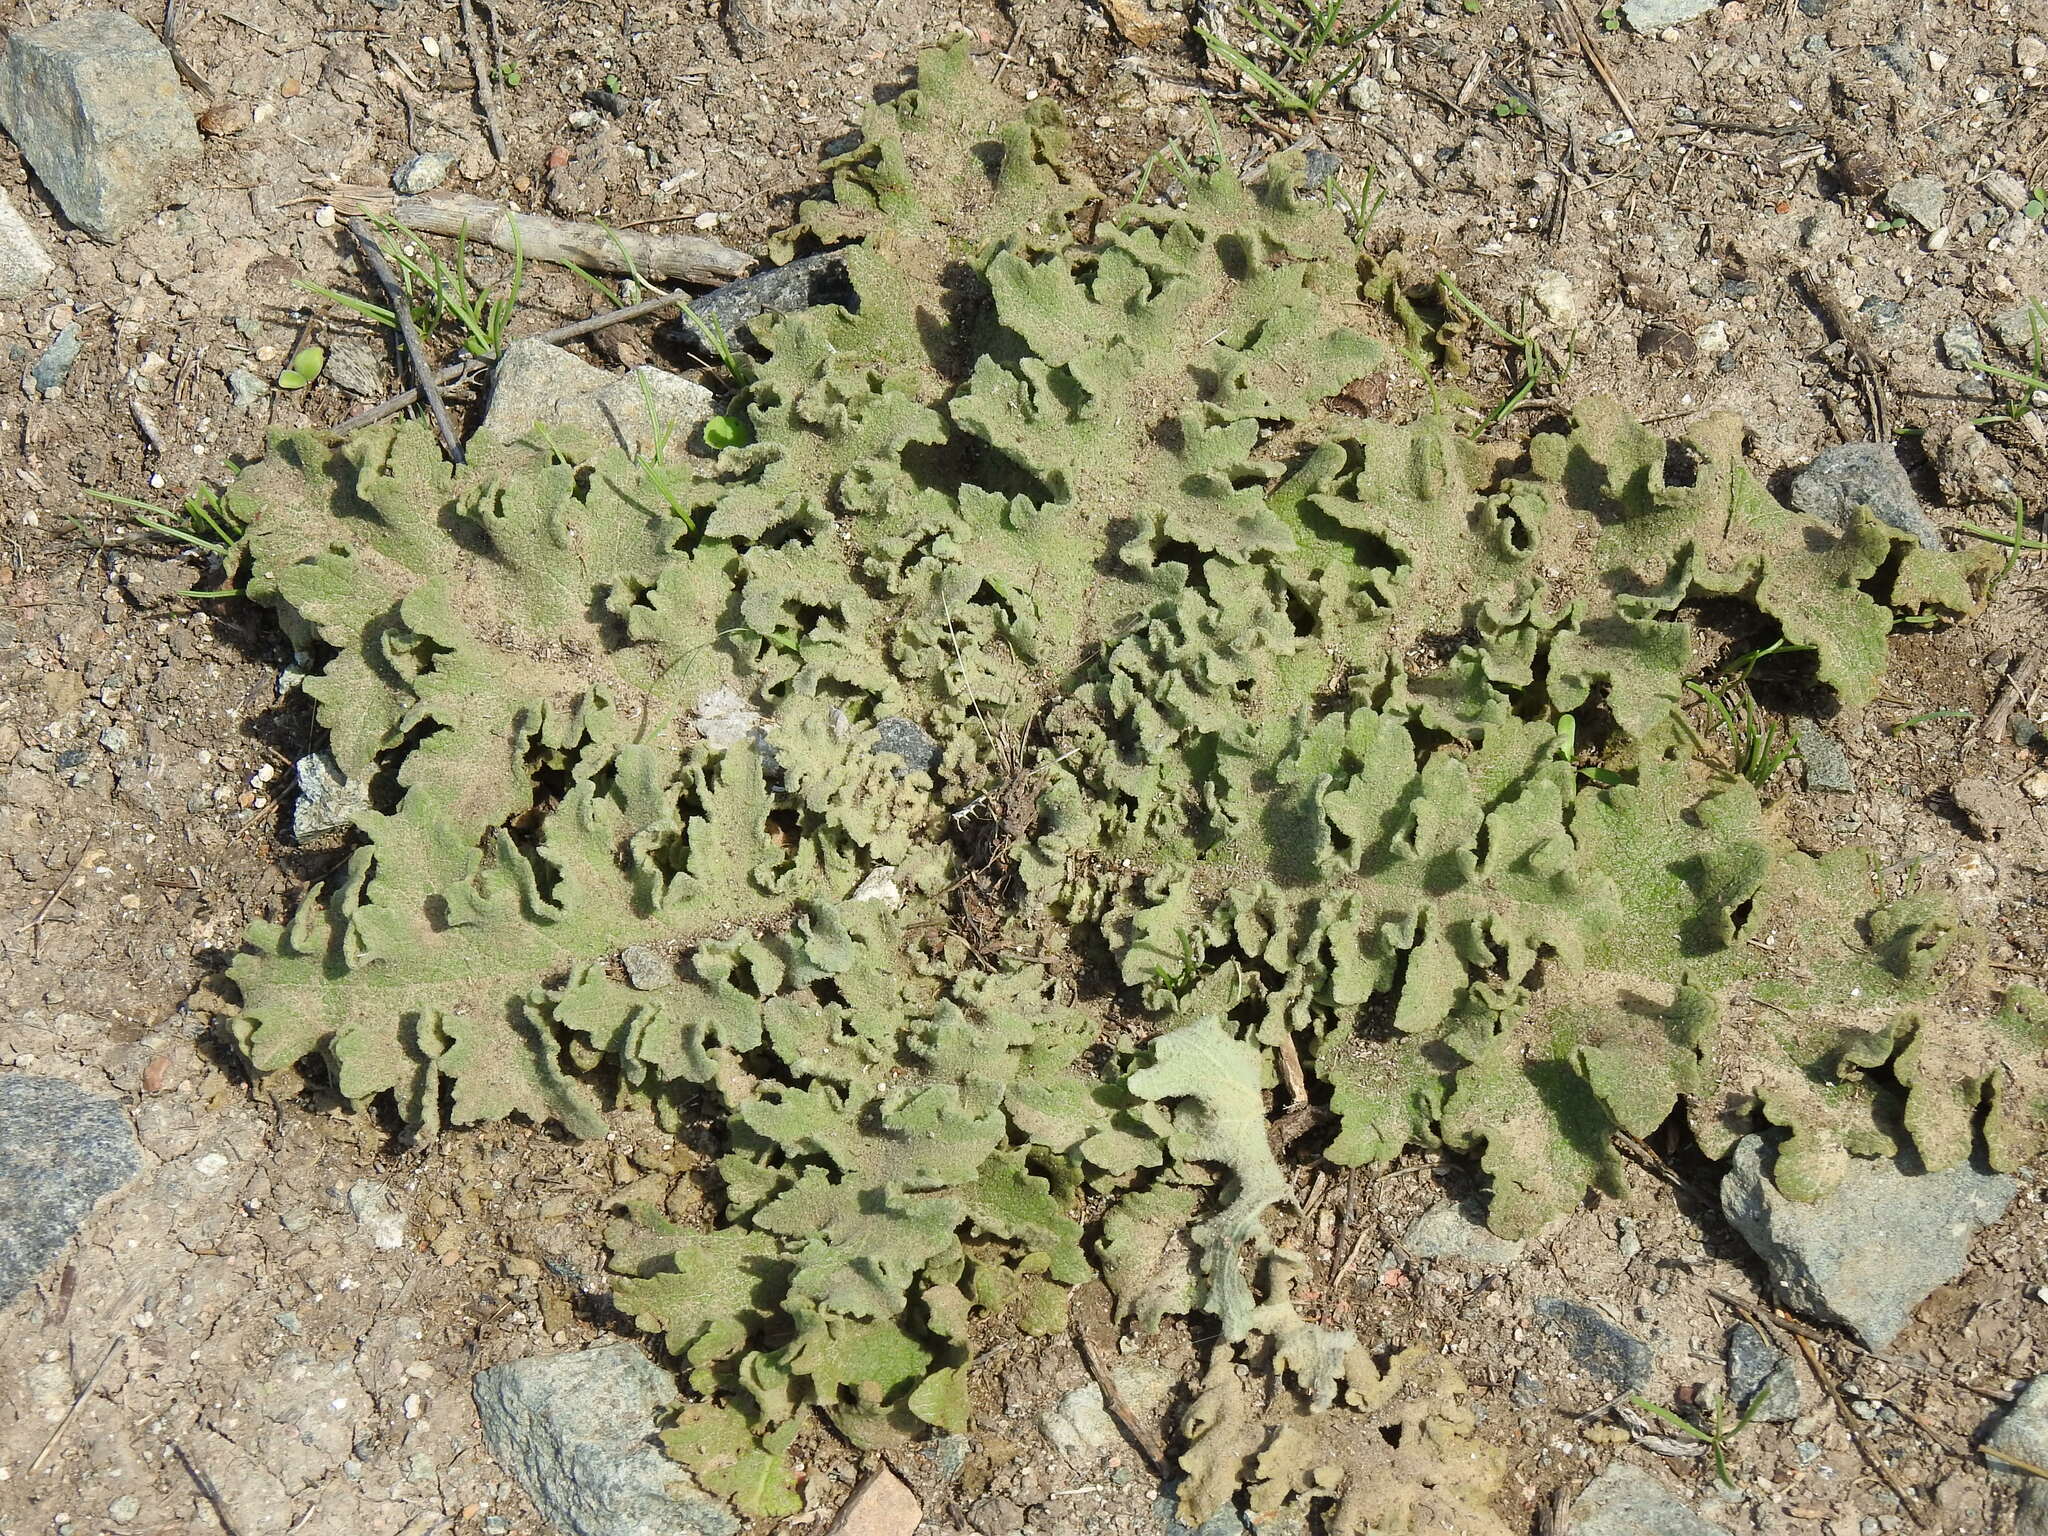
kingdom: Plantae
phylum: Tracheophyta
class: Magnoliopsida
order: Lamiales
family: Scrophulariaceae
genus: Verbascum
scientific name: Verbascum sinuatum
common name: Wavyleaf mullein
